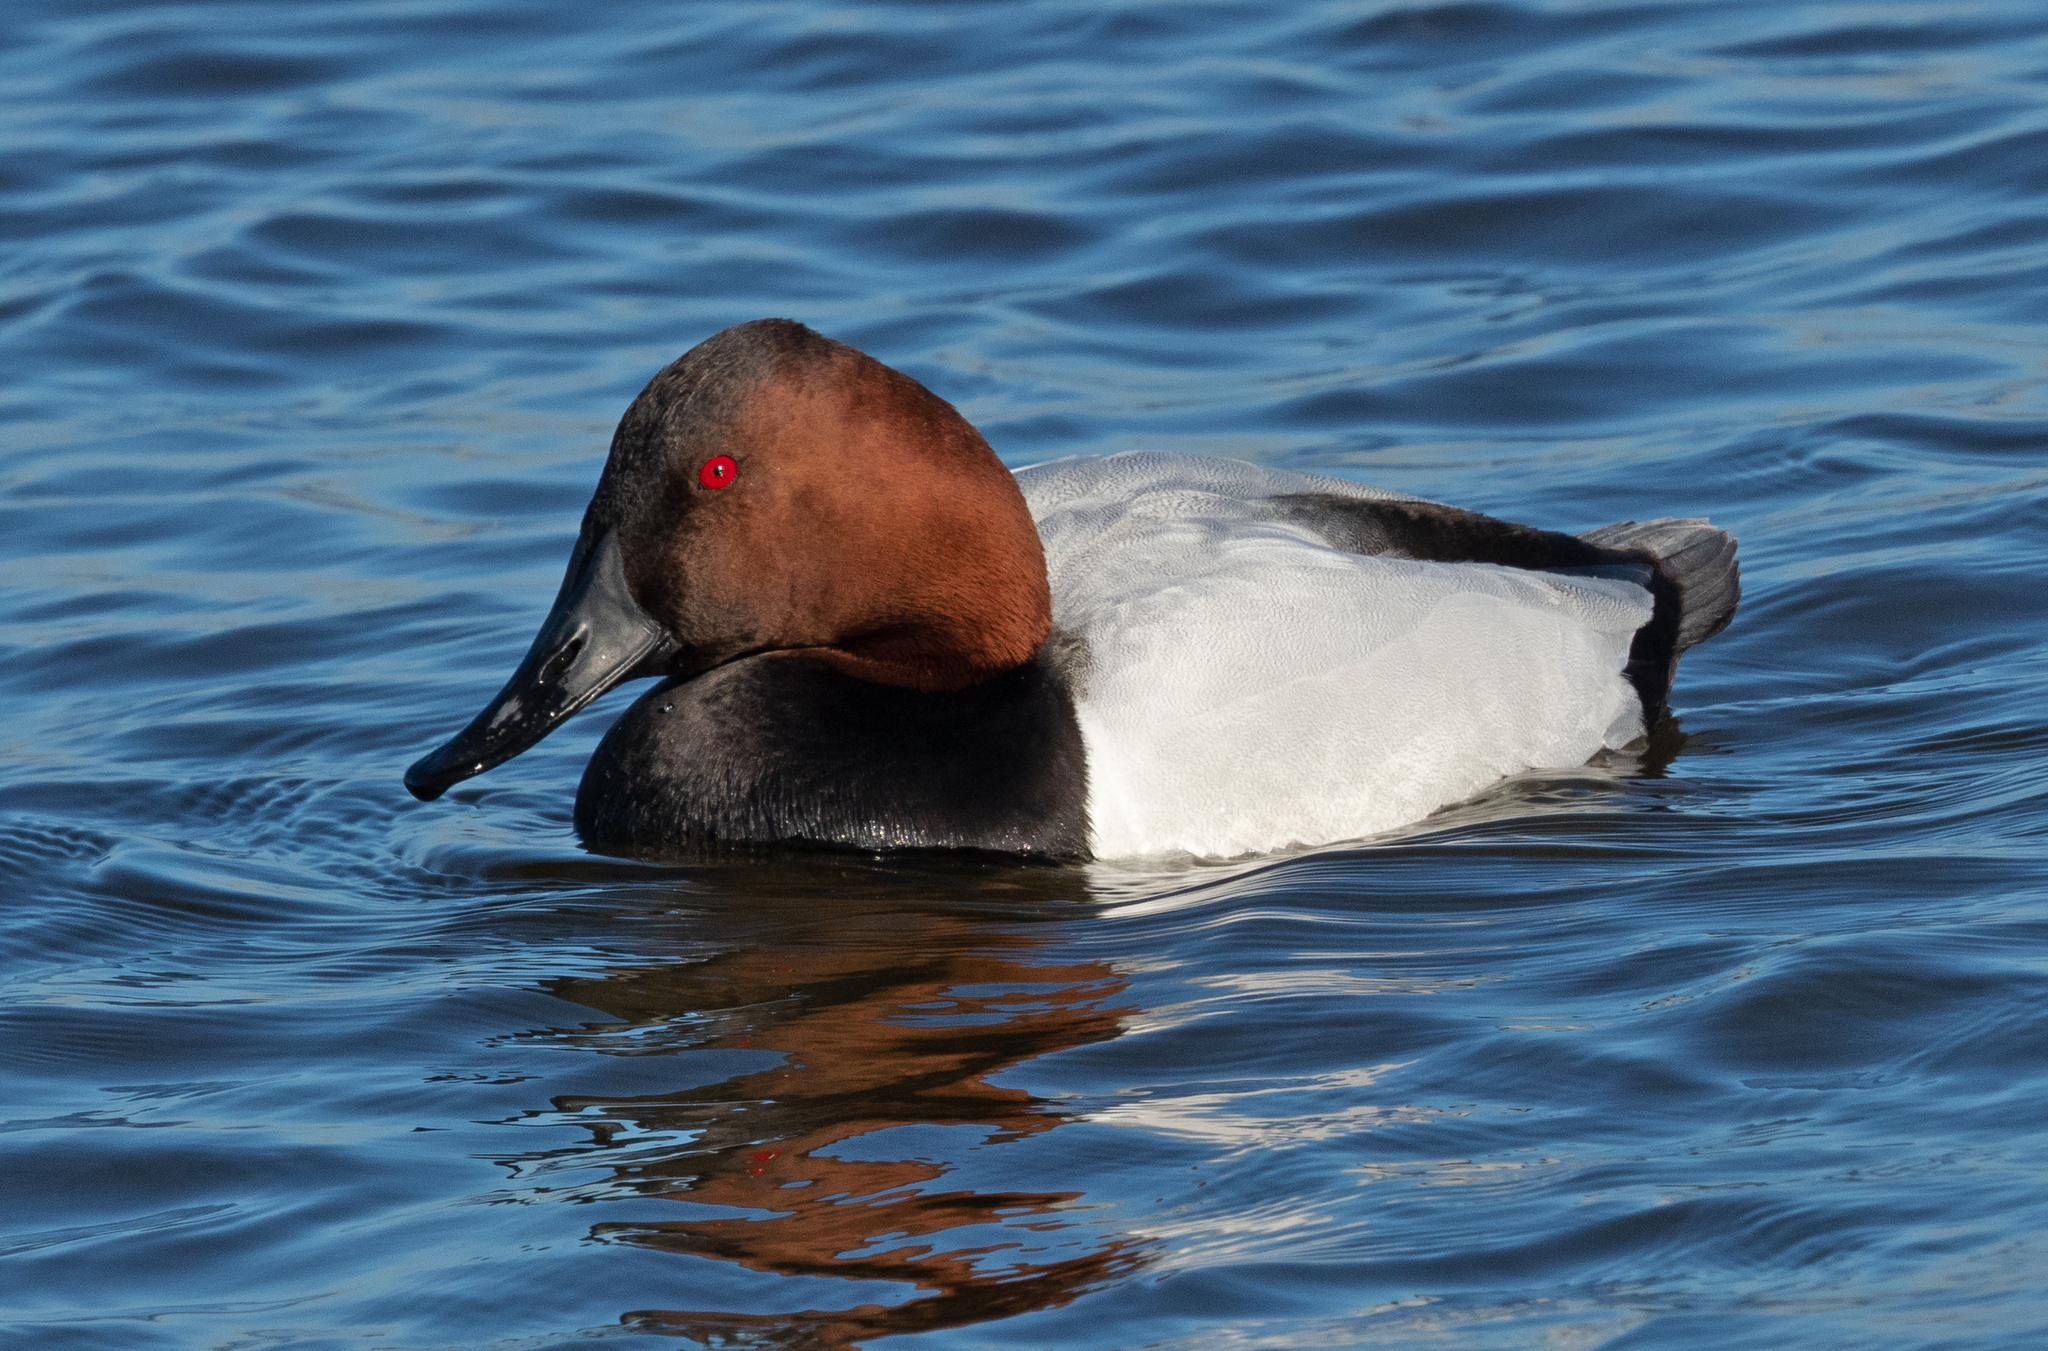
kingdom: Animalia
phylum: Chordata
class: Aves
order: Anseriformes
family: Anatidae
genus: Aythya
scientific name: Aythya valisineria
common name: Canvasback
